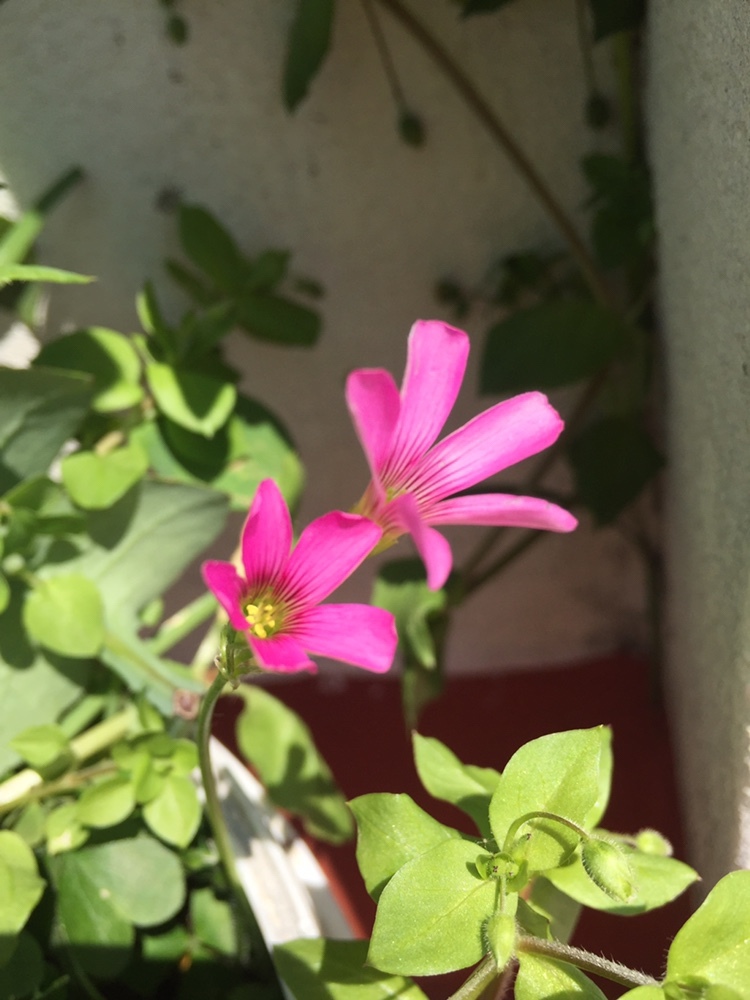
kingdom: Plantae
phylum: Tracheophyta
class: Magnoliopsida
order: Oxalidales
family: Oxalidaceae
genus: Oxalis
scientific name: Oxalis debilis
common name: Large-flowered pink-sorrel
